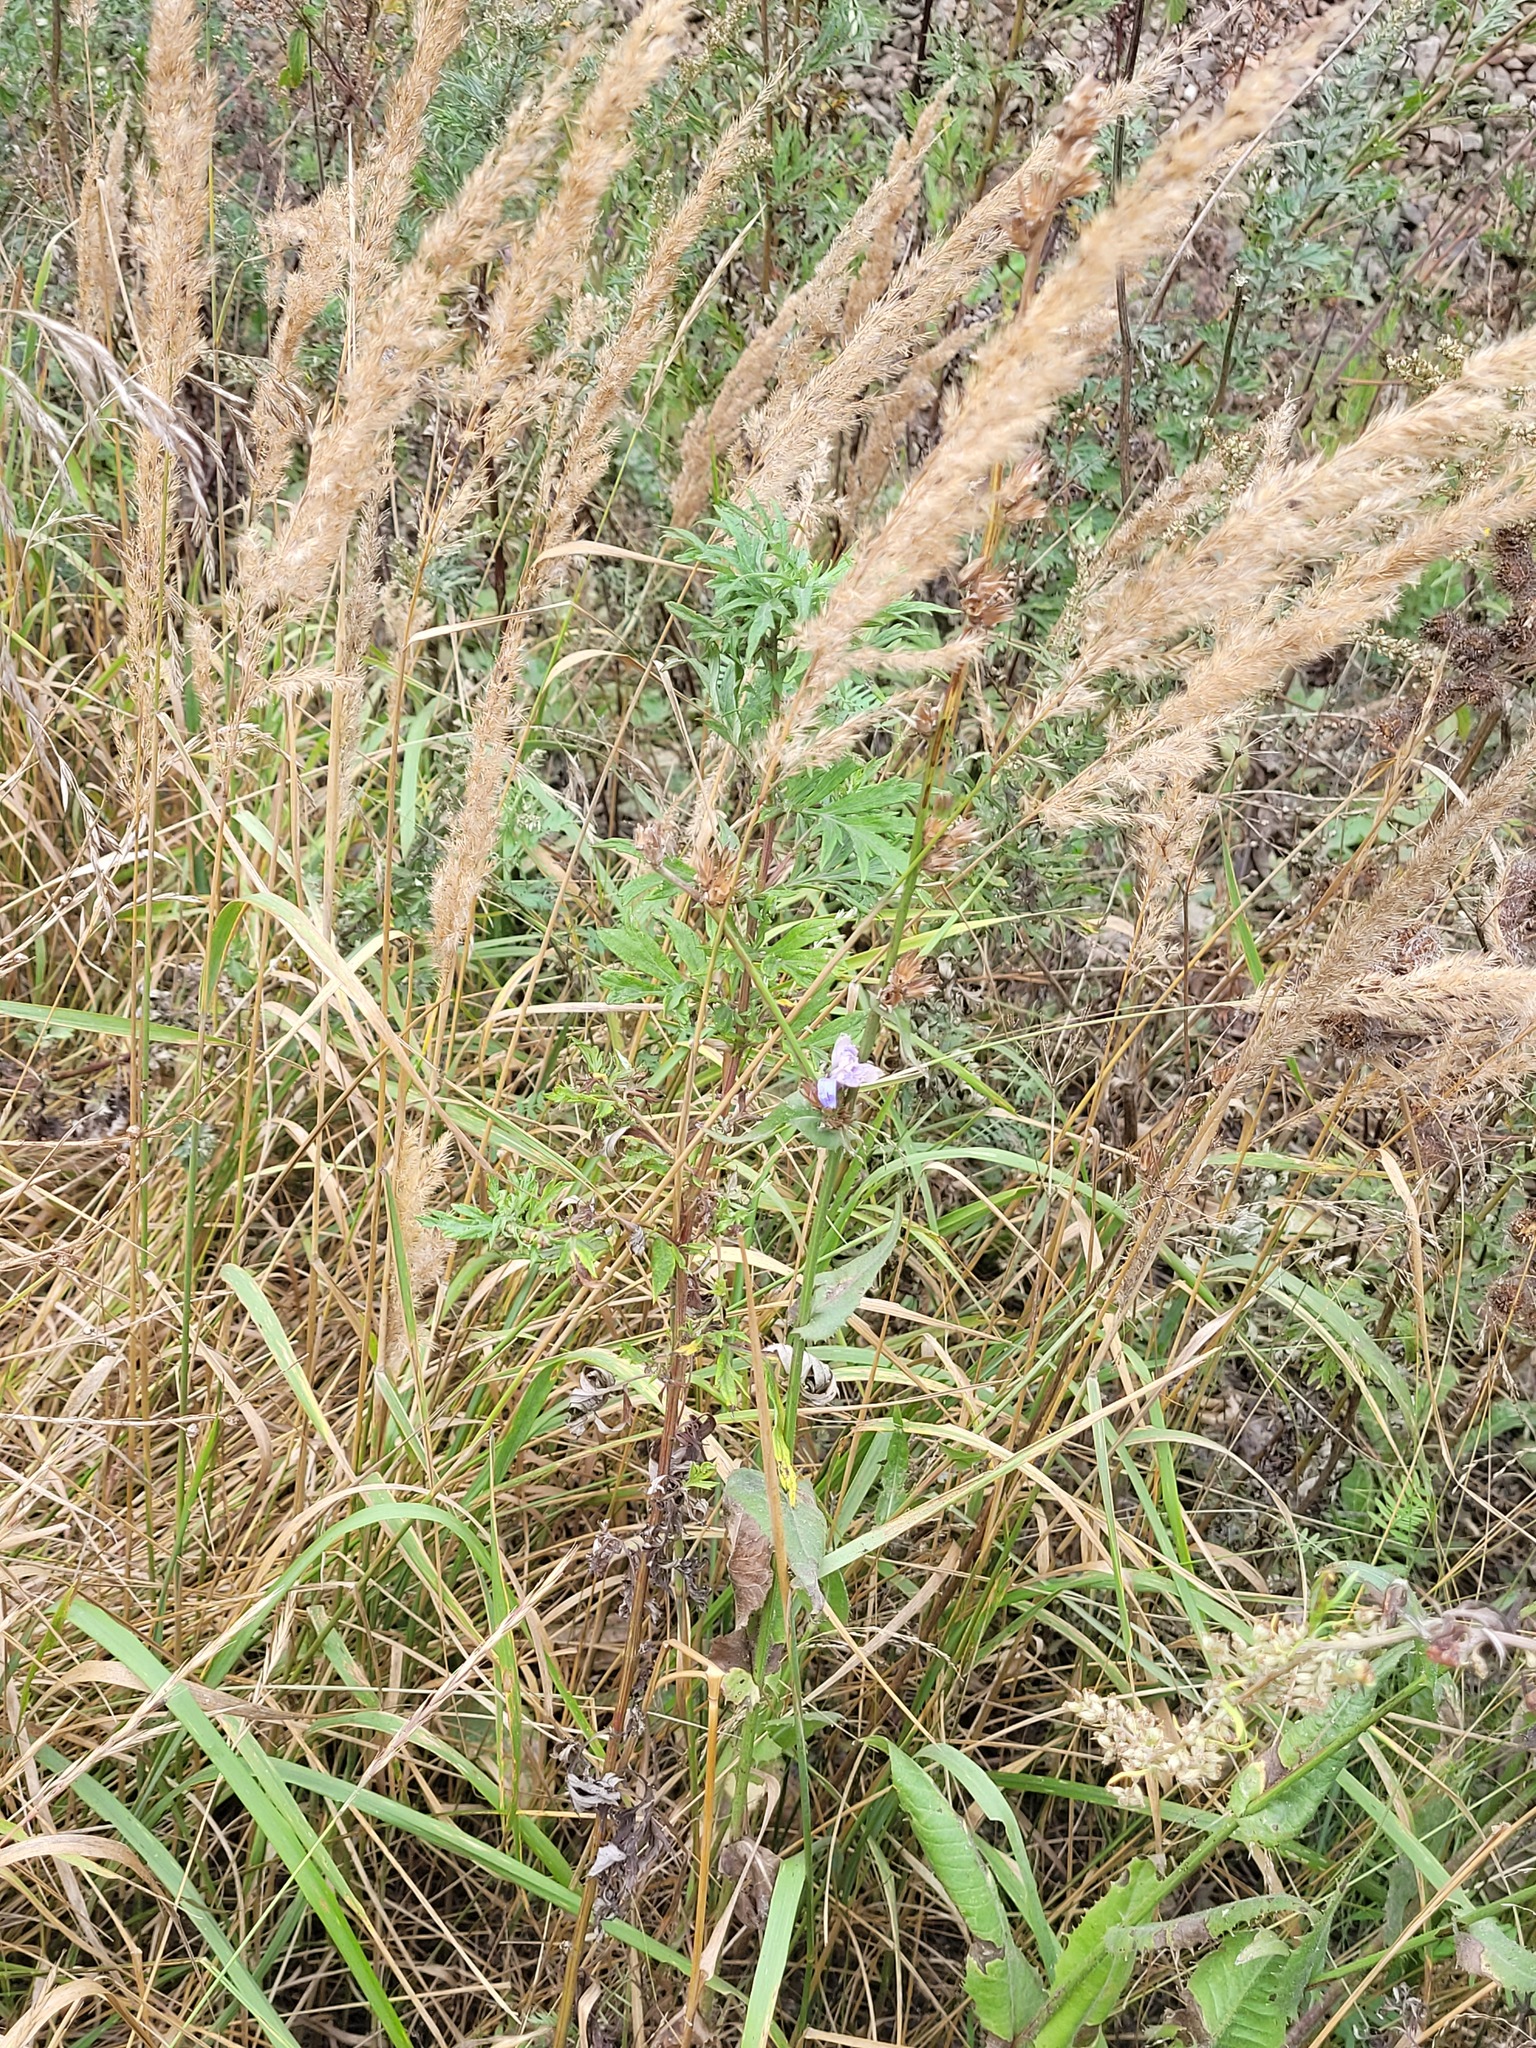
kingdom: Plantae
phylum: Tracheophyta
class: Magnoliopsida
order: Asterales
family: Asteraceae
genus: Cichorium
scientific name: Cichorium intybus
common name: Chicory
